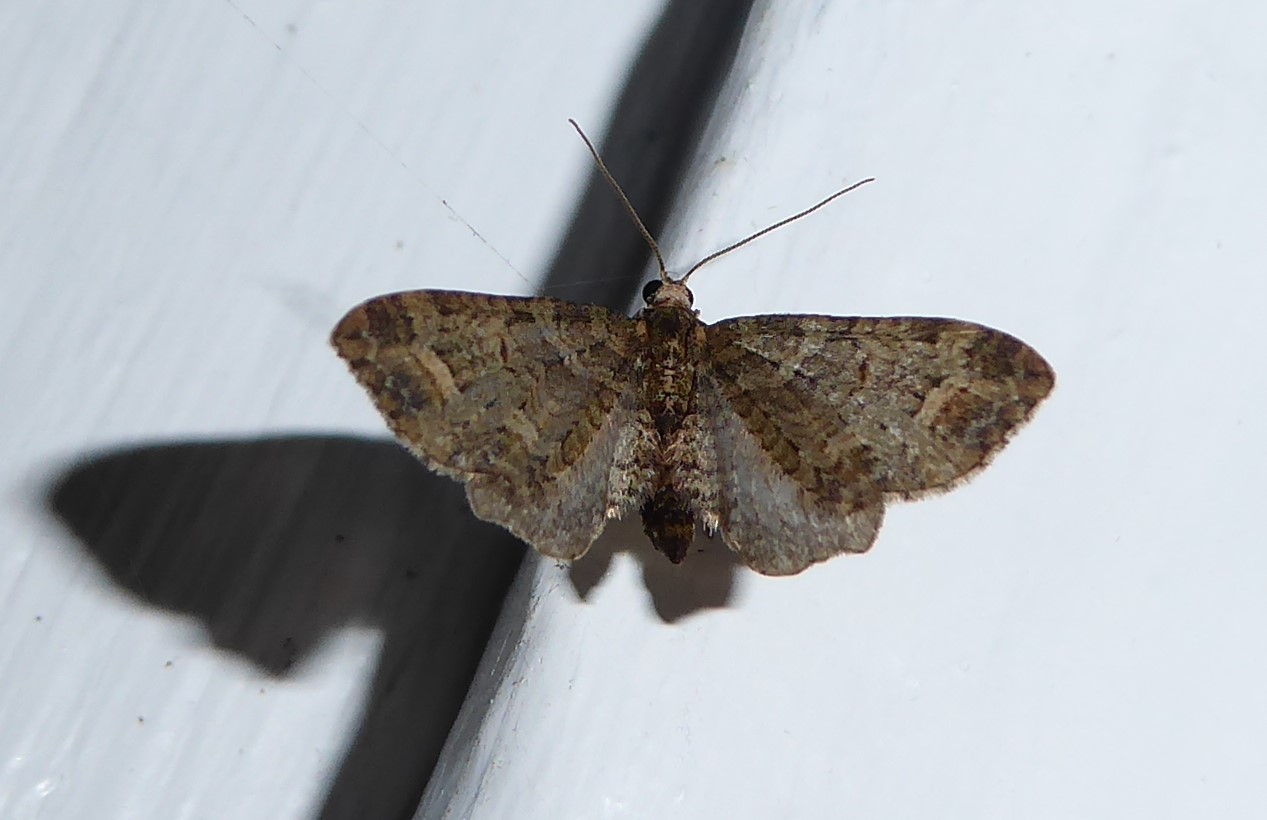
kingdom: Animalia
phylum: Arthropoda
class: Insecta
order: Lepidoptera
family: Geometridae
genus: Idaea
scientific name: Idaea mutanda
